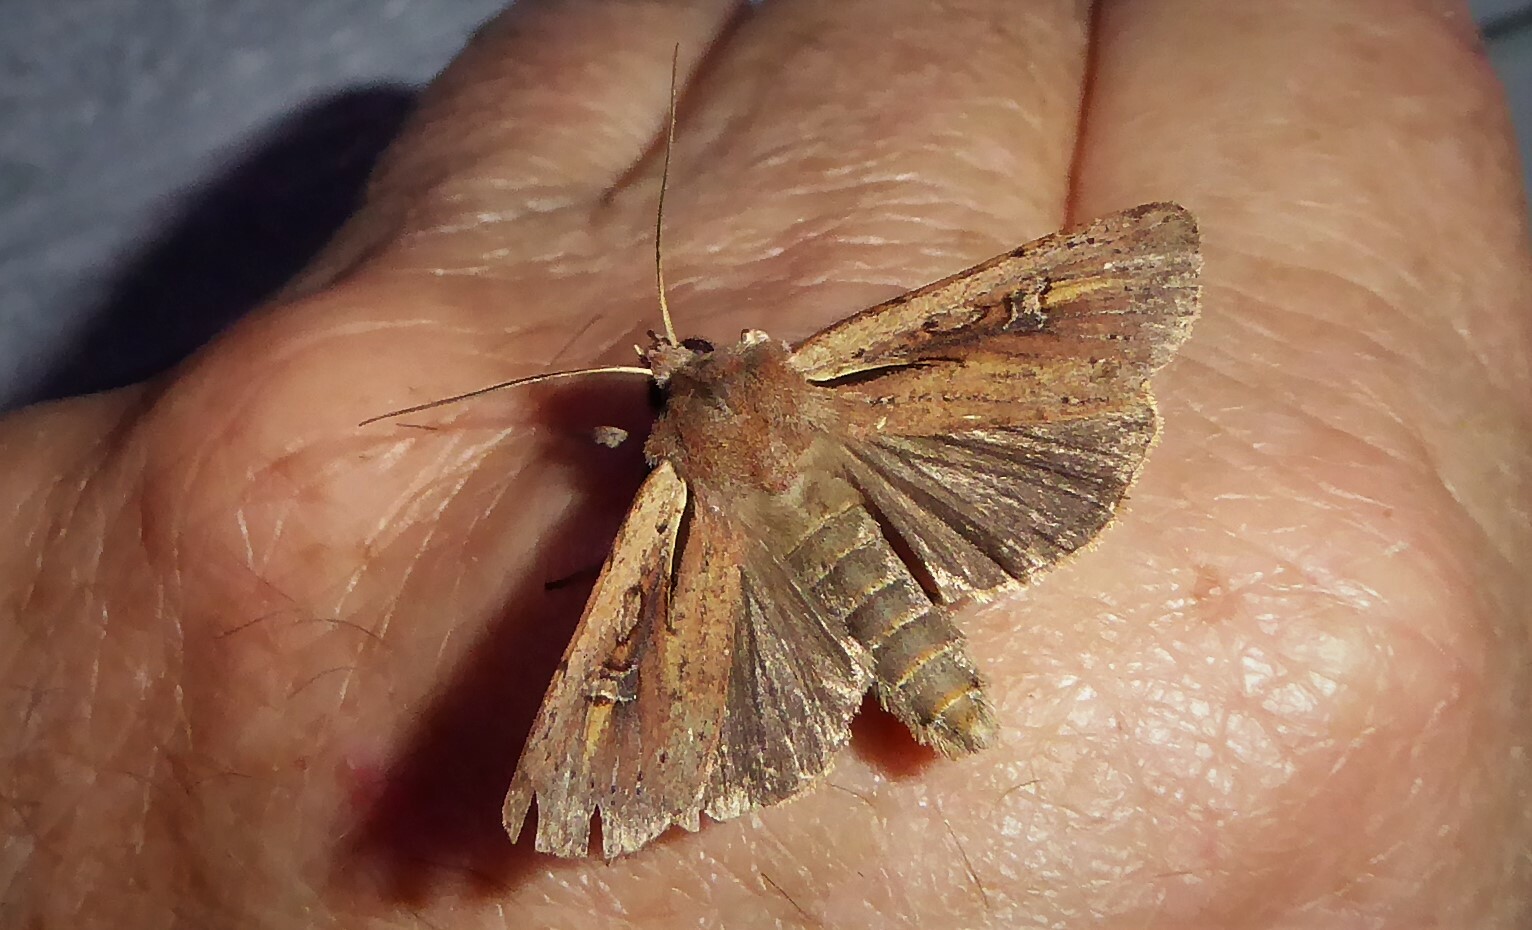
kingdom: Animalia
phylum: Arthropoda
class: Insecta
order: Lepidoptera
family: Noctuidae
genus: Ichneutica
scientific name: Ichneutica atristriga
